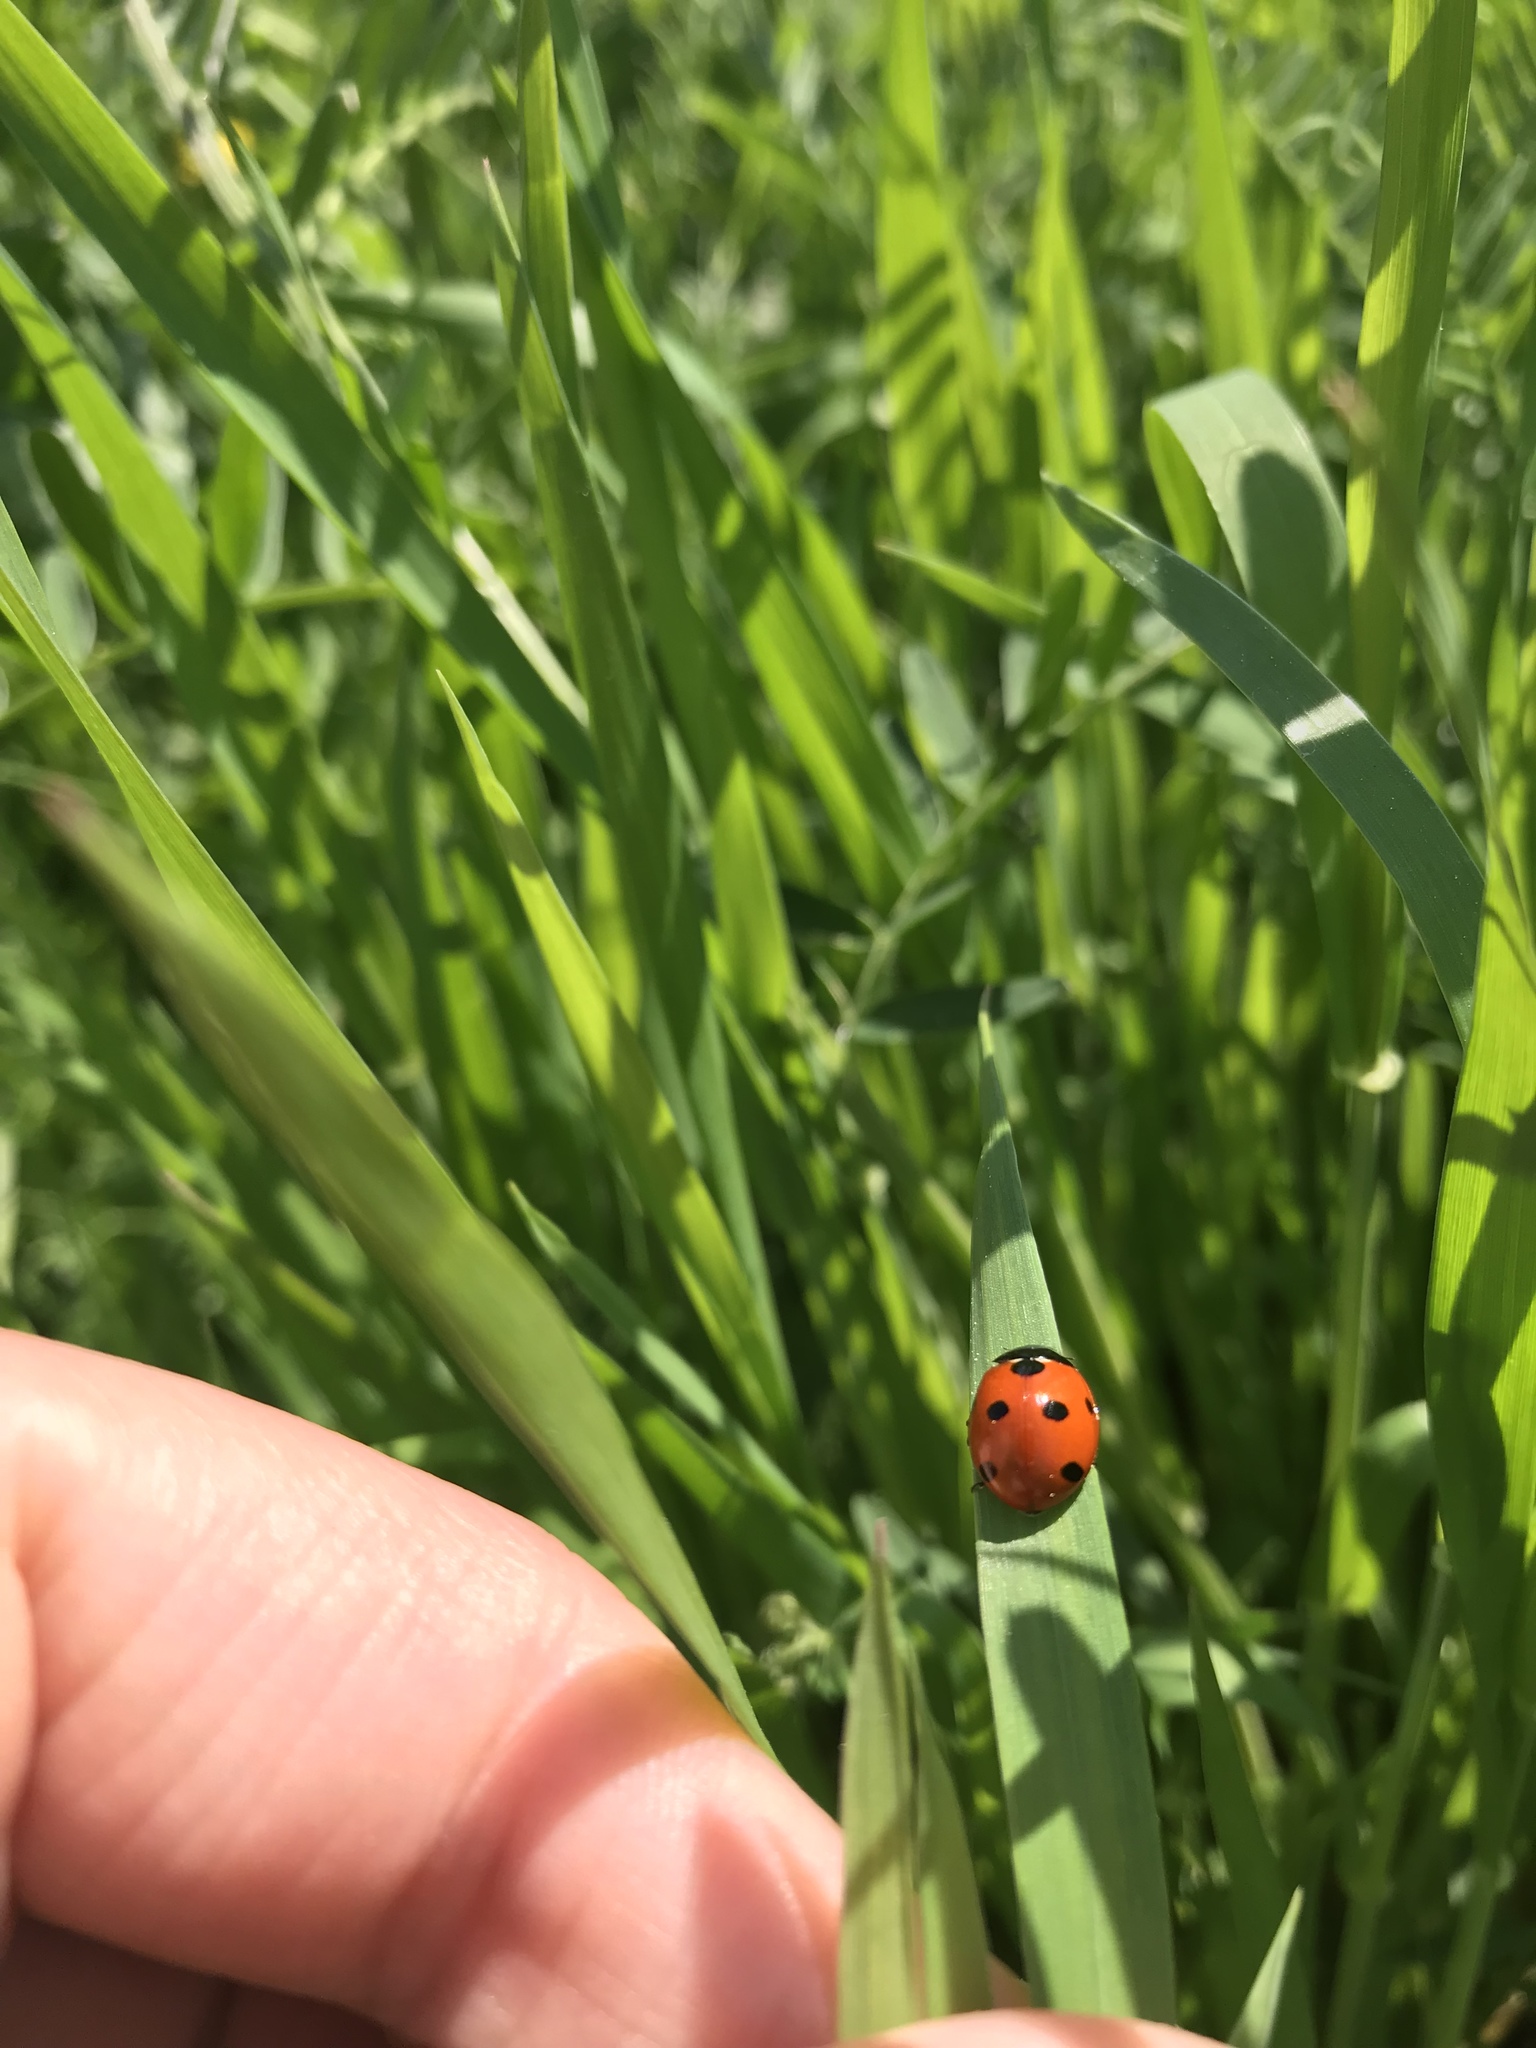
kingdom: Animalia
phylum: Arthropoda
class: Insecta
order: Coleoptera
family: Coccinellidae
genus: Coccinella
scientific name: Coccinella septempunctata
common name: Sevenspotted lady beetle
